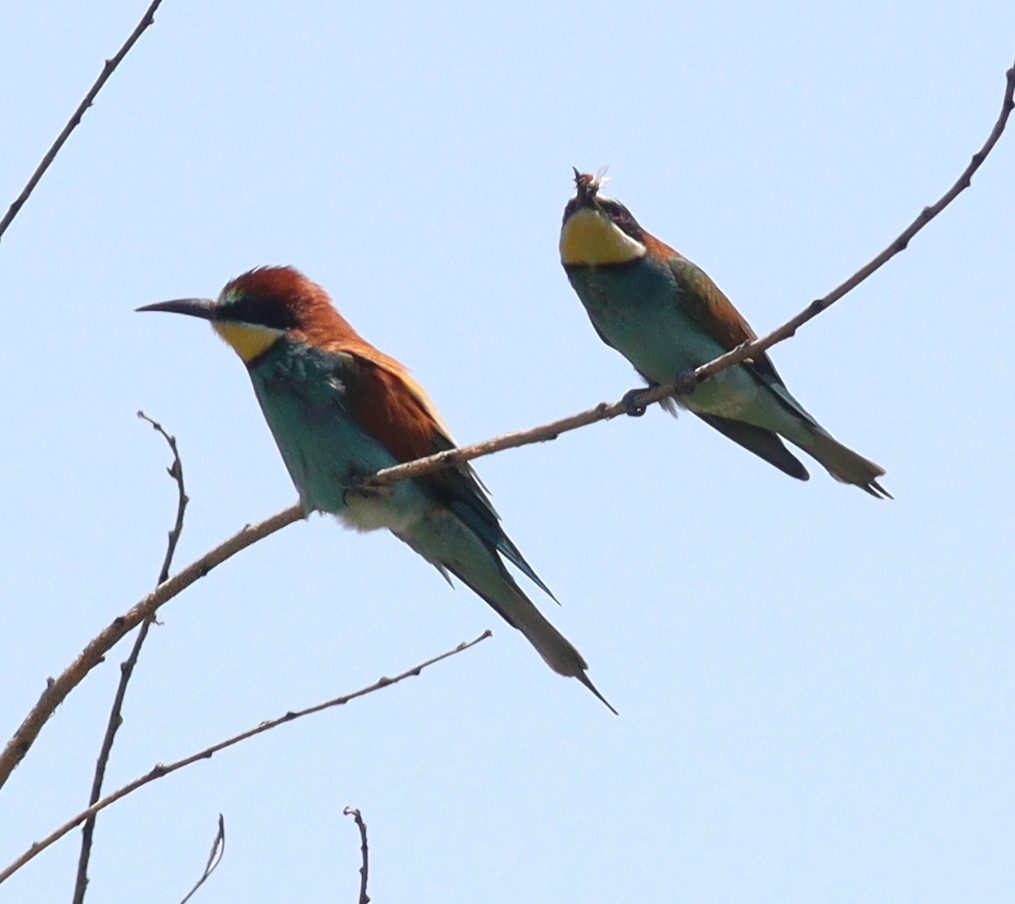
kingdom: Animalia
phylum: Chordata
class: Aves
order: Coraciiformes
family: Meropidae
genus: Merops
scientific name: Merops apiaster
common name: European bee-eater
